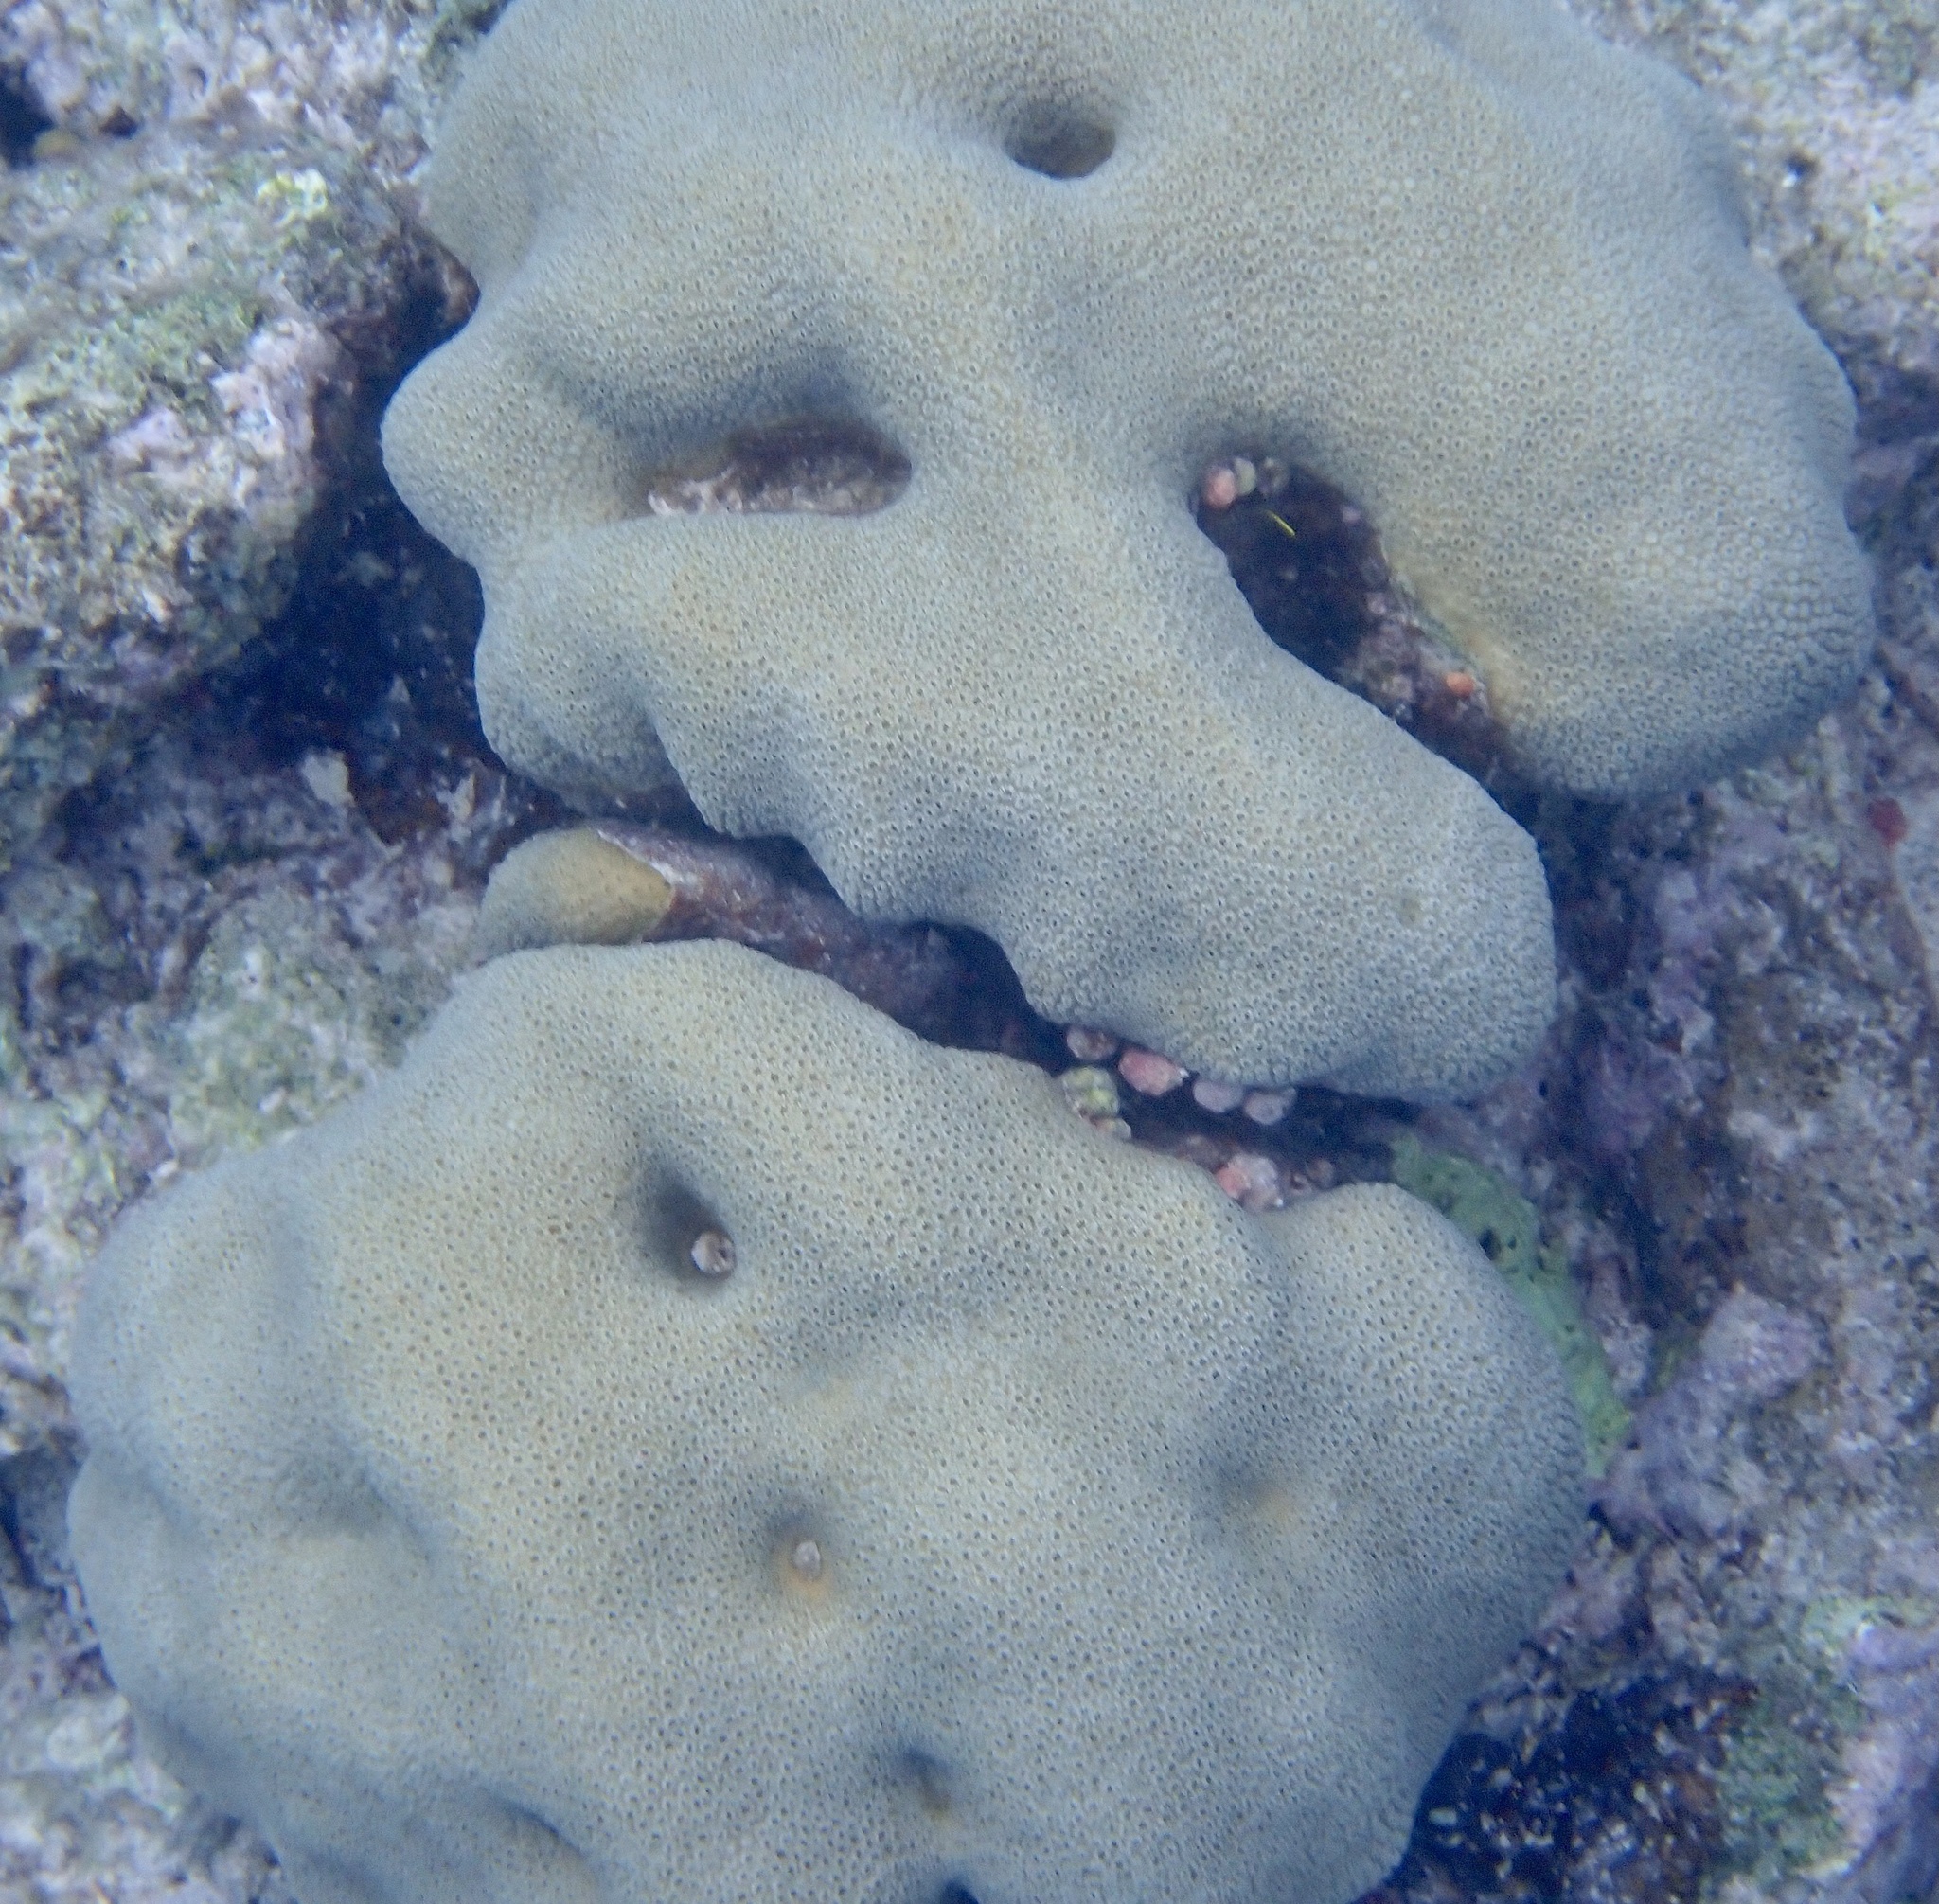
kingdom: Animalia
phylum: Cnidaria
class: Anthozoa
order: Scleractinia
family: Merulinidae
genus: Orbicella
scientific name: Orbicella annularis
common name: Boulder star coral
